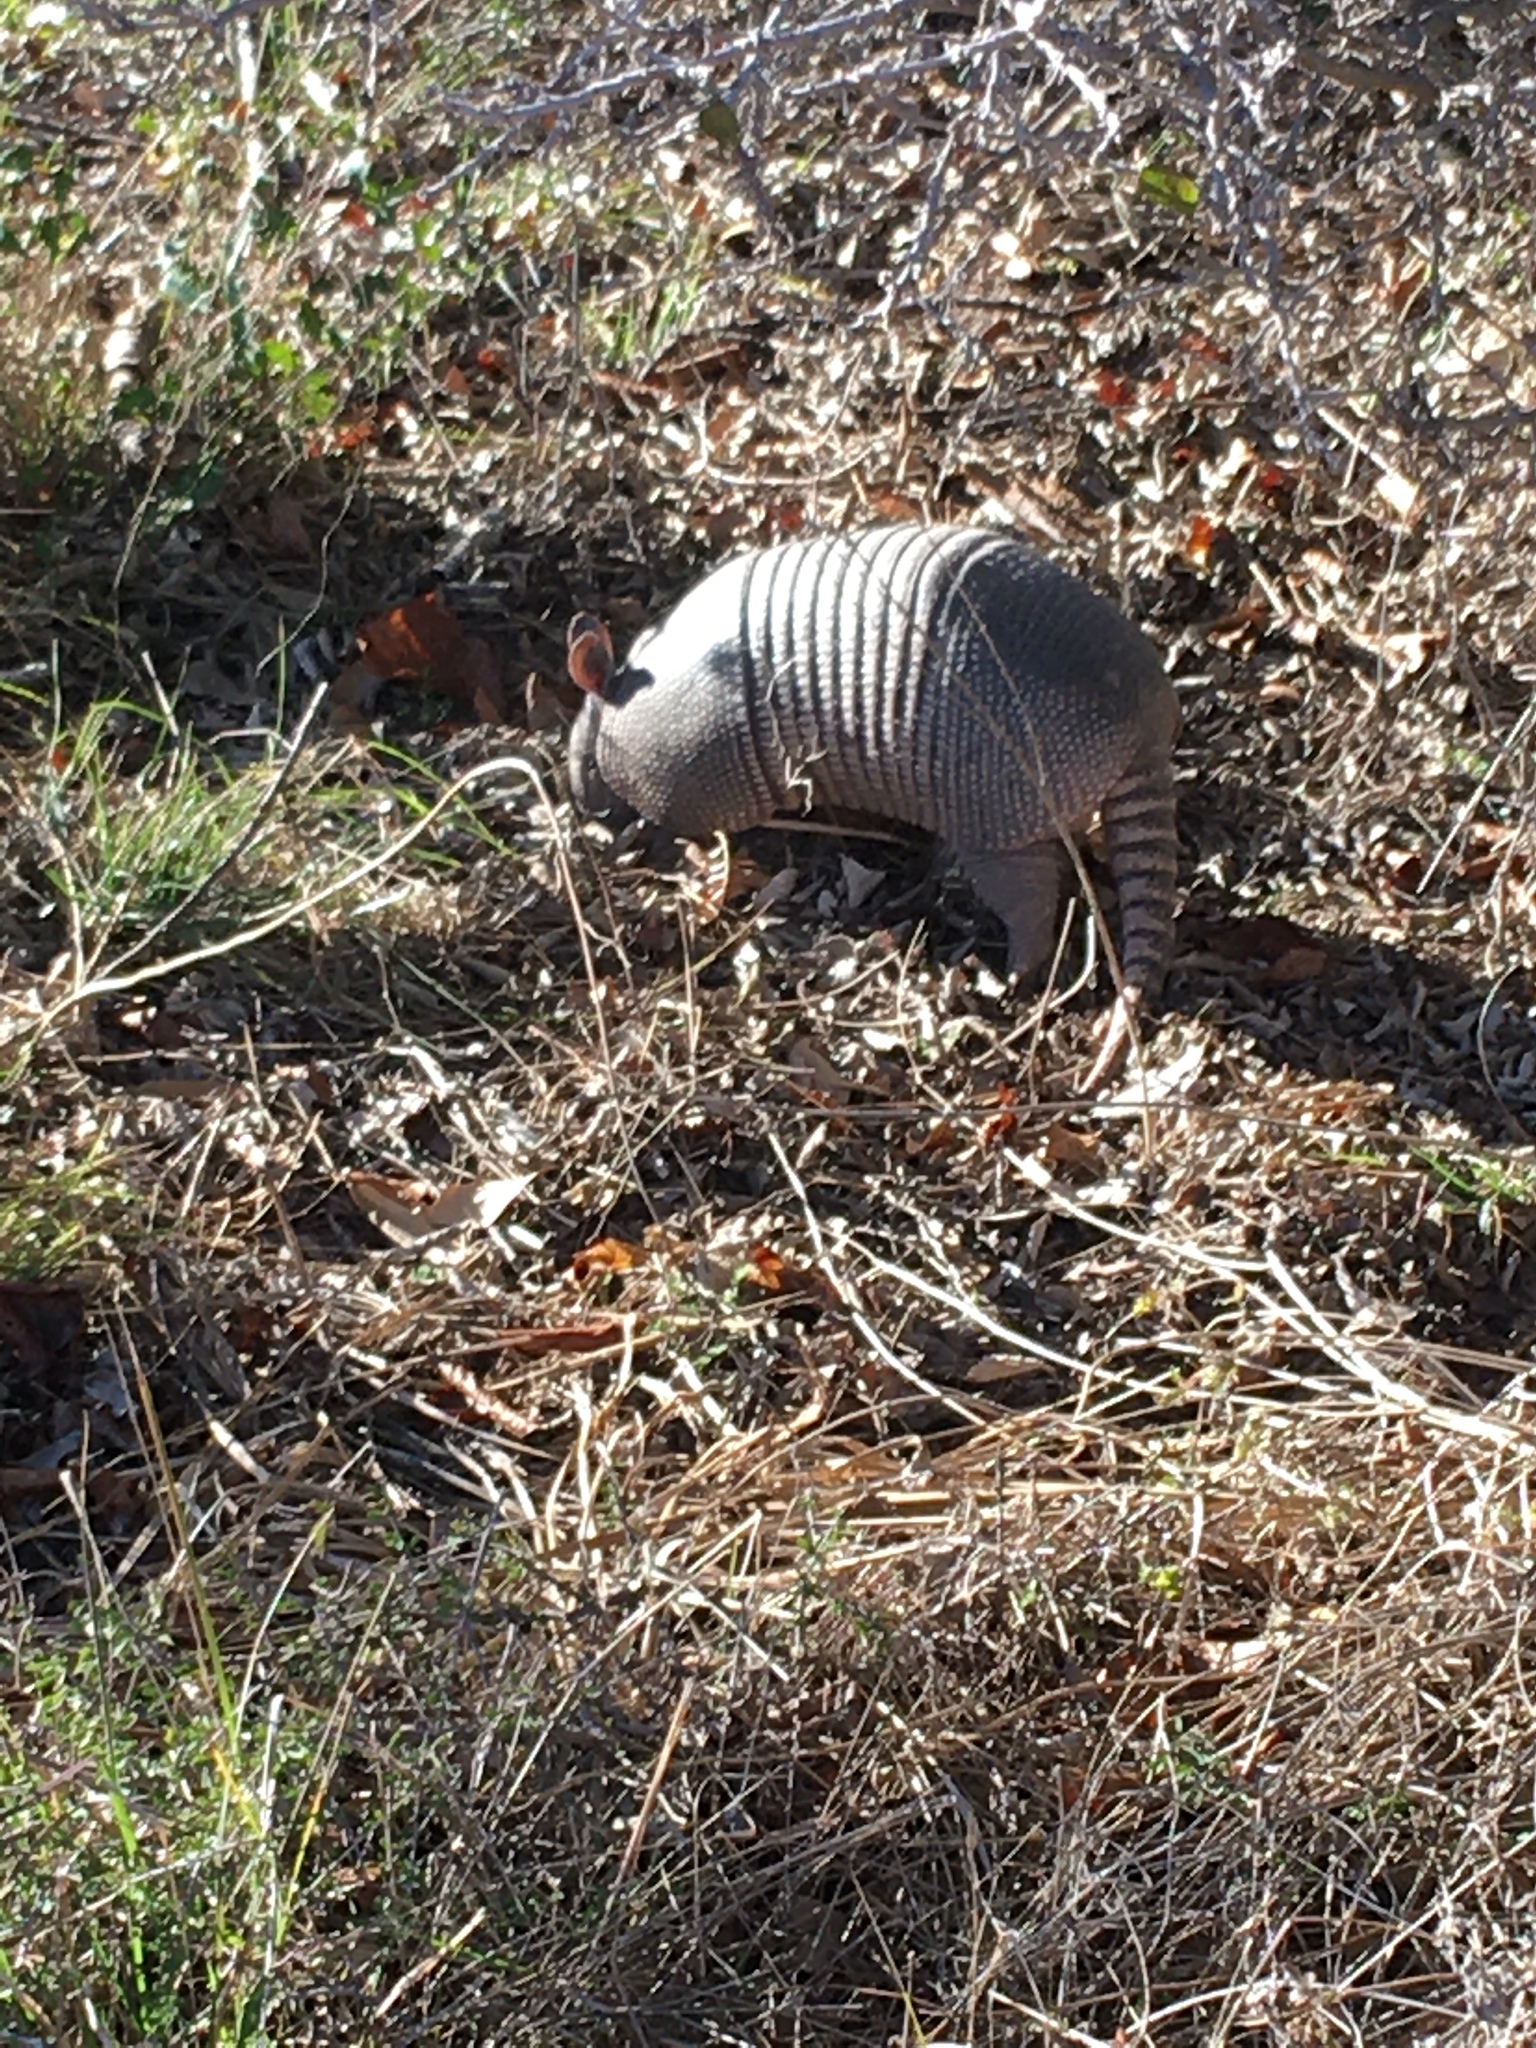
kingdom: Animalia
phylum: Chordata
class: Mammalia
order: Cingulata
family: Dasypodidae
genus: Dasypus
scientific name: Dasypus novemcinctus
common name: Nine-banded armadillo
